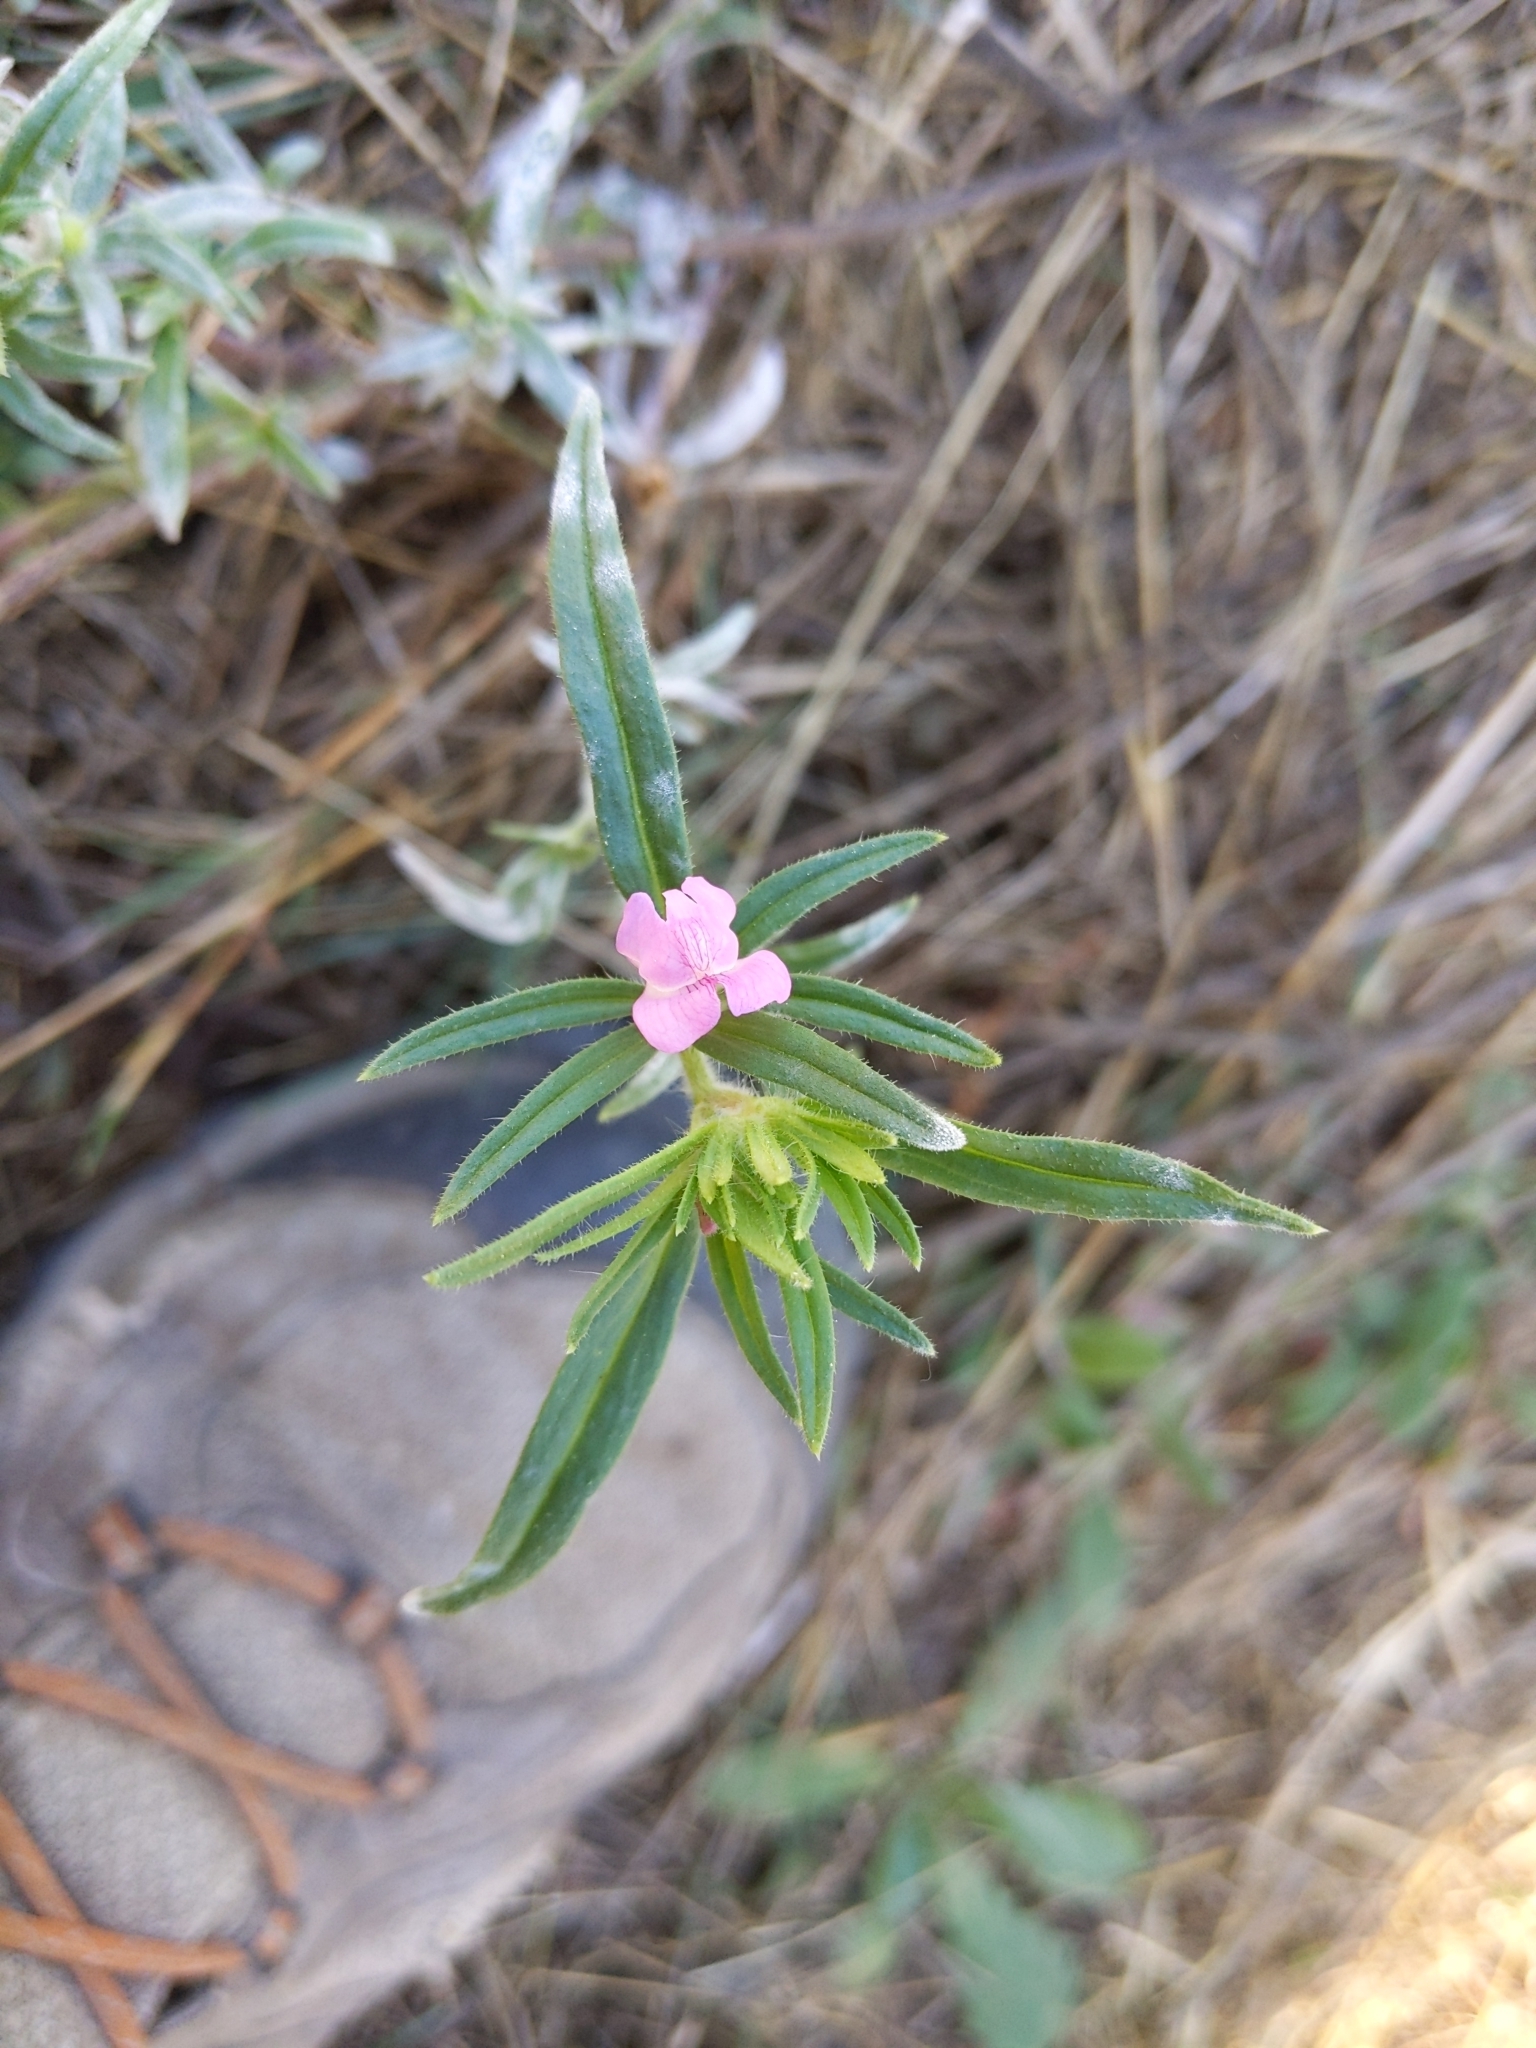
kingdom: Plantae
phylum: Tracheophyta
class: Magnoliopsida
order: Lamiales
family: Plantaginaceae
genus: Misopates
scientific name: Misopates orontium
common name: Weasel's-snout
